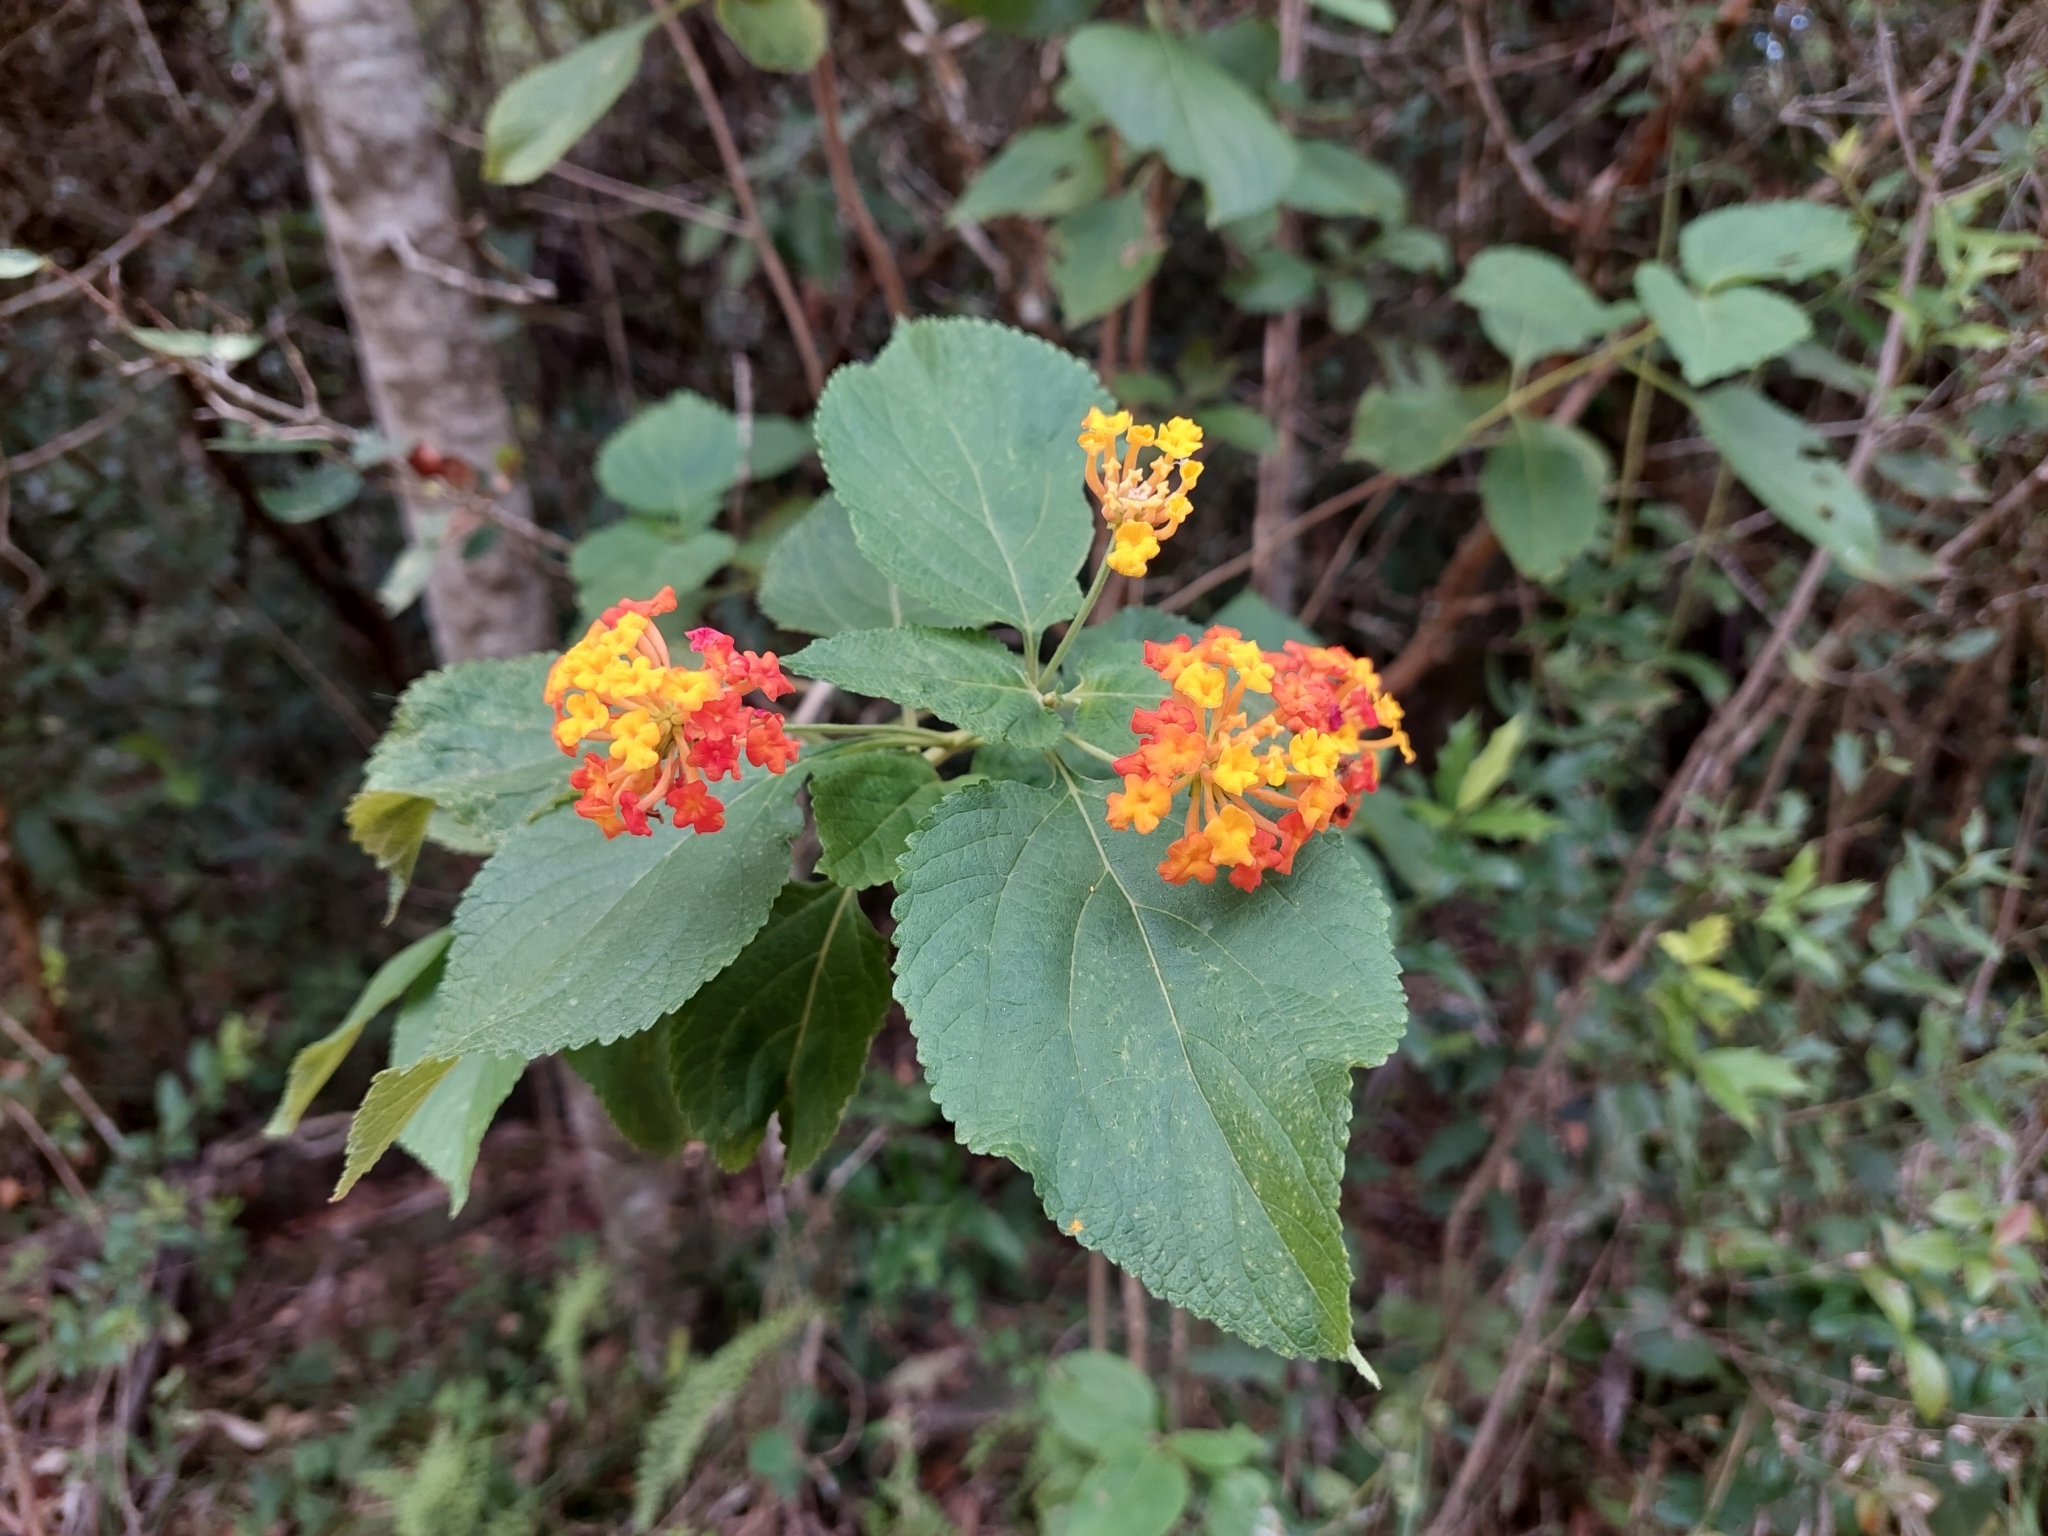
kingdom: Plantae
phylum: Tracheophyta
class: Magnoliopsida
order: Lamiales
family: Verbenaceae
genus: Lantana
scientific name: Lantana camara
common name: Lantana
